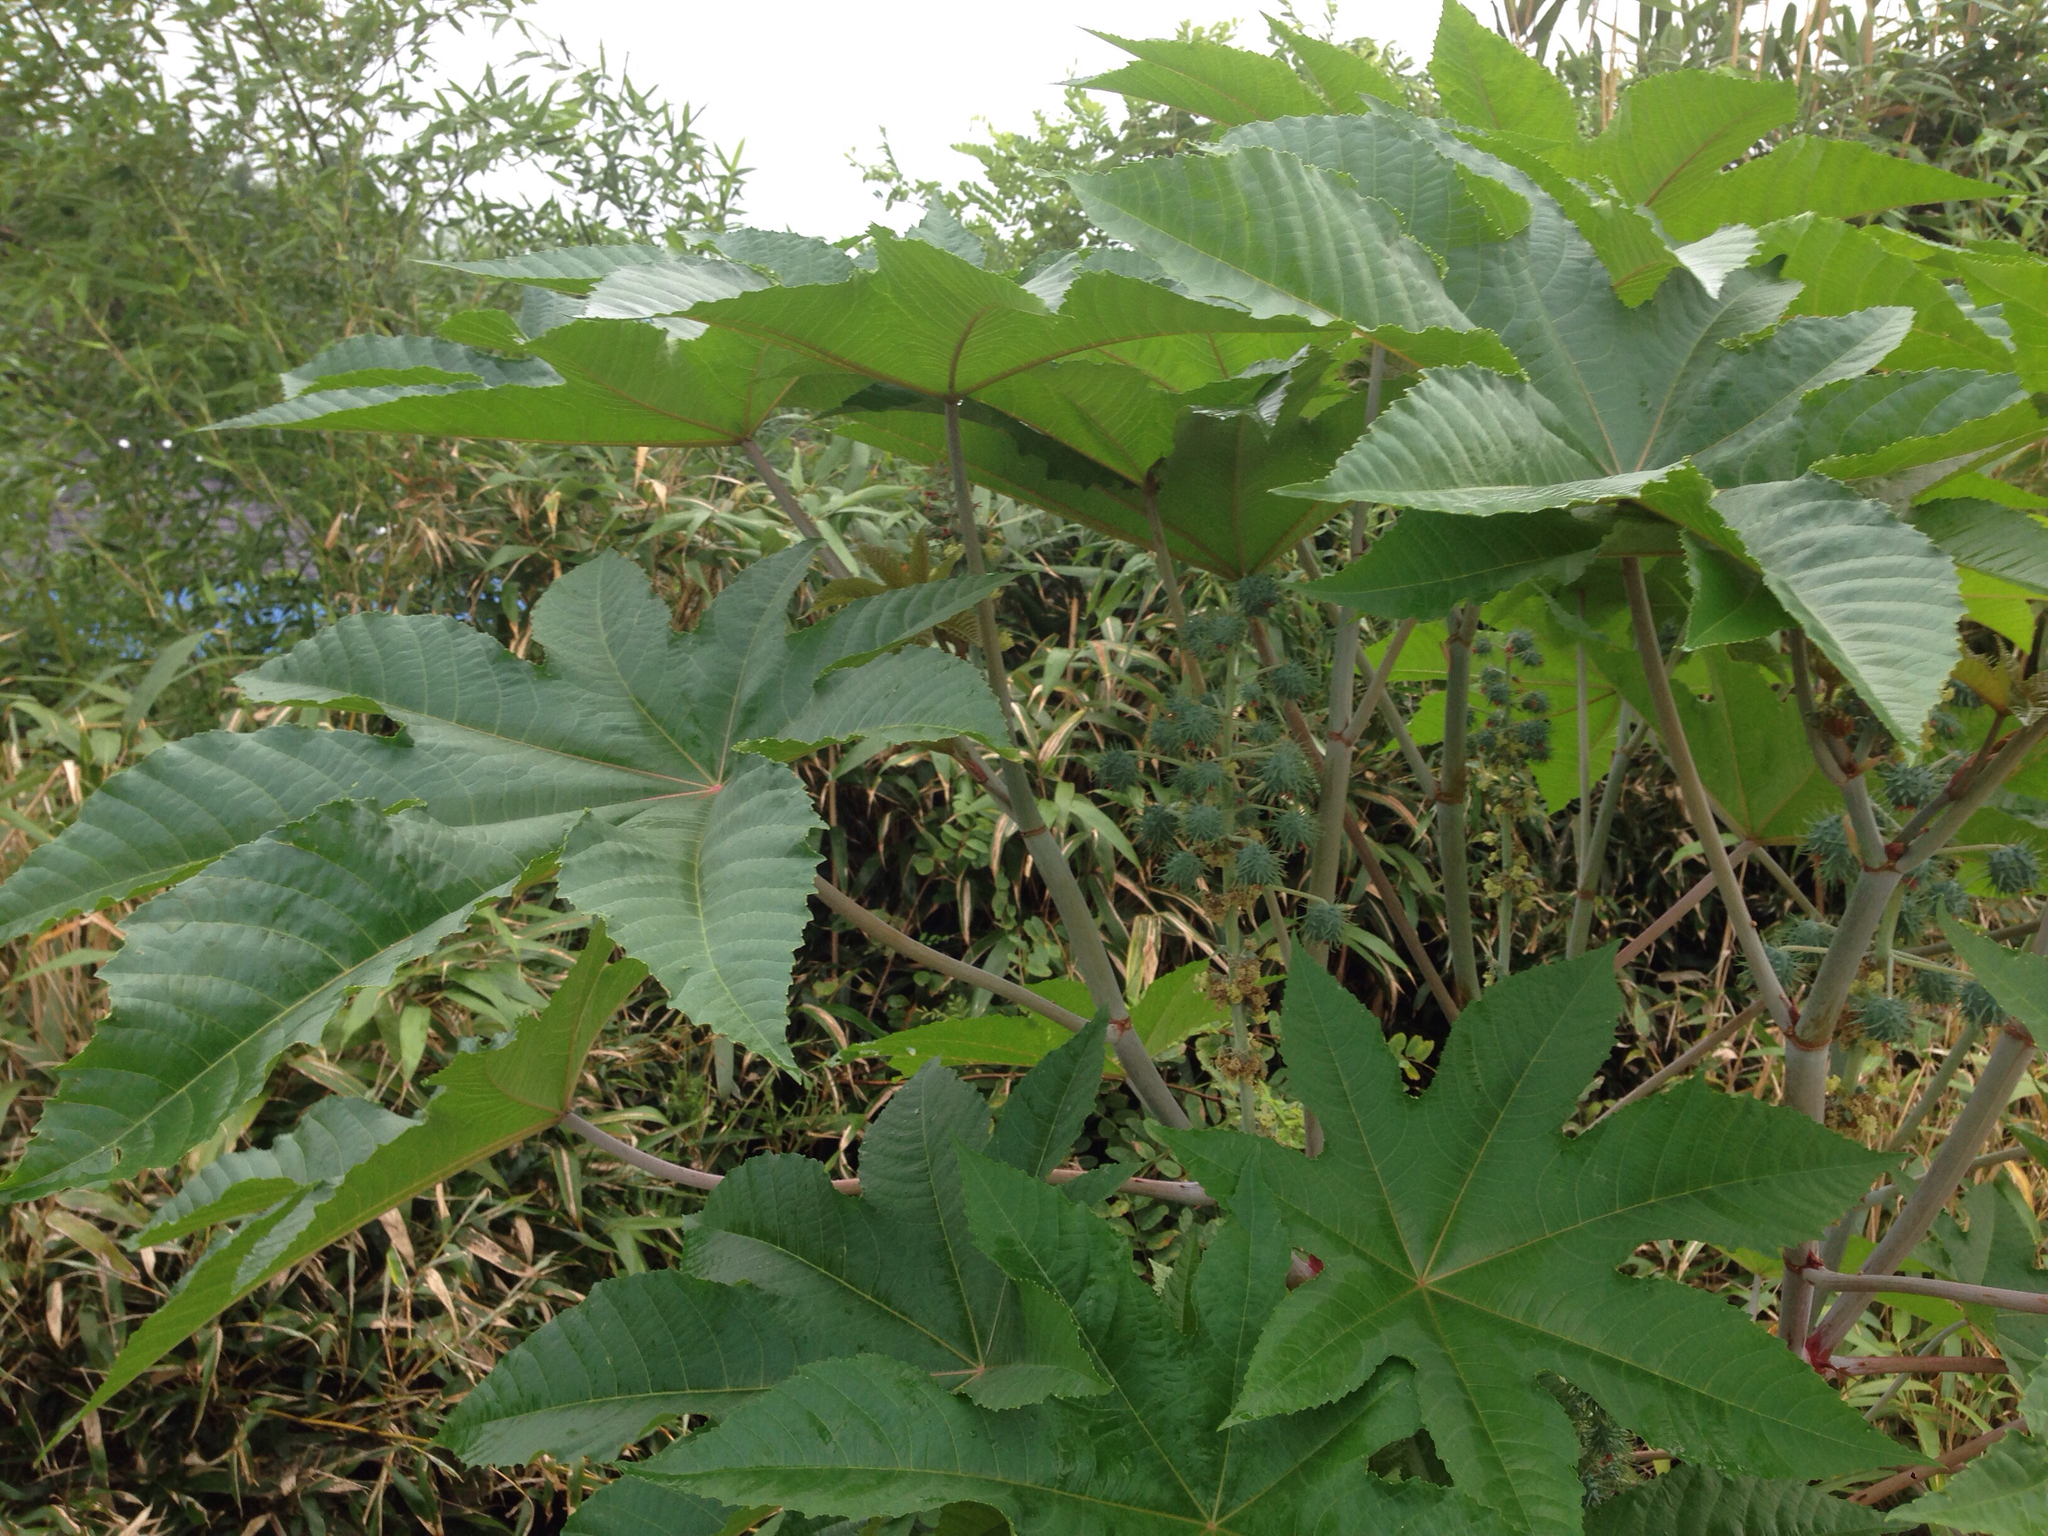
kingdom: Plantae
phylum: Tracheophyta
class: Magnoliopsida
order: Malpighiales
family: Euphorbiaceae
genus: Ricinus
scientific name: Ricinus communis
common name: Castor-oil-plant
